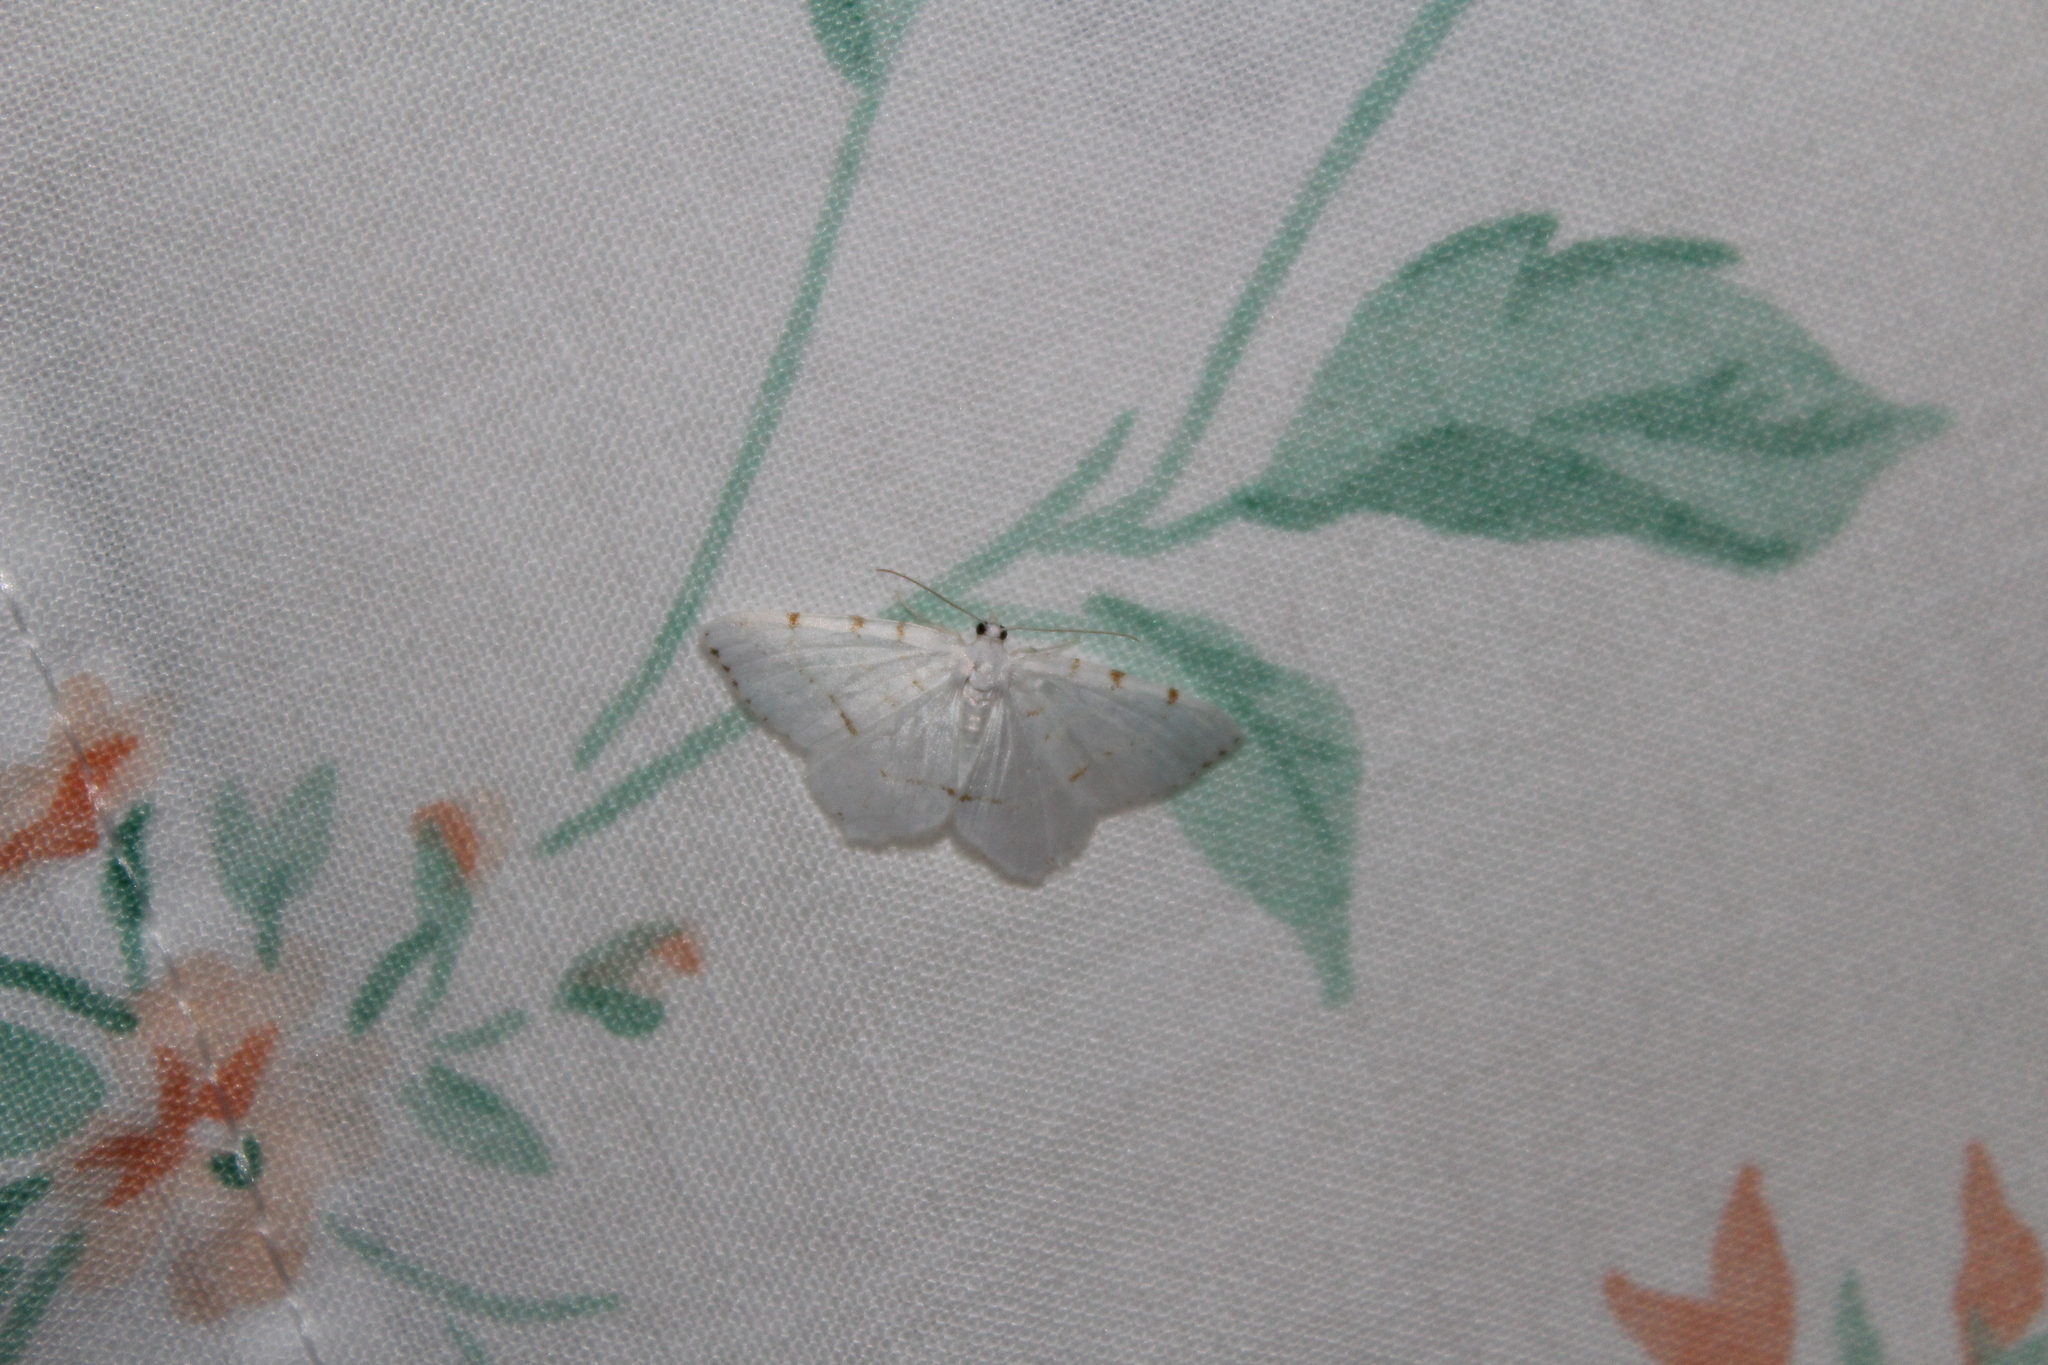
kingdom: Animalia
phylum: Arthropoda
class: Insecta
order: Lepidoptera
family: Geometridae
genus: Macaria
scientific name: Macaria pustularia
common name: Lesser maple spanworm moth
